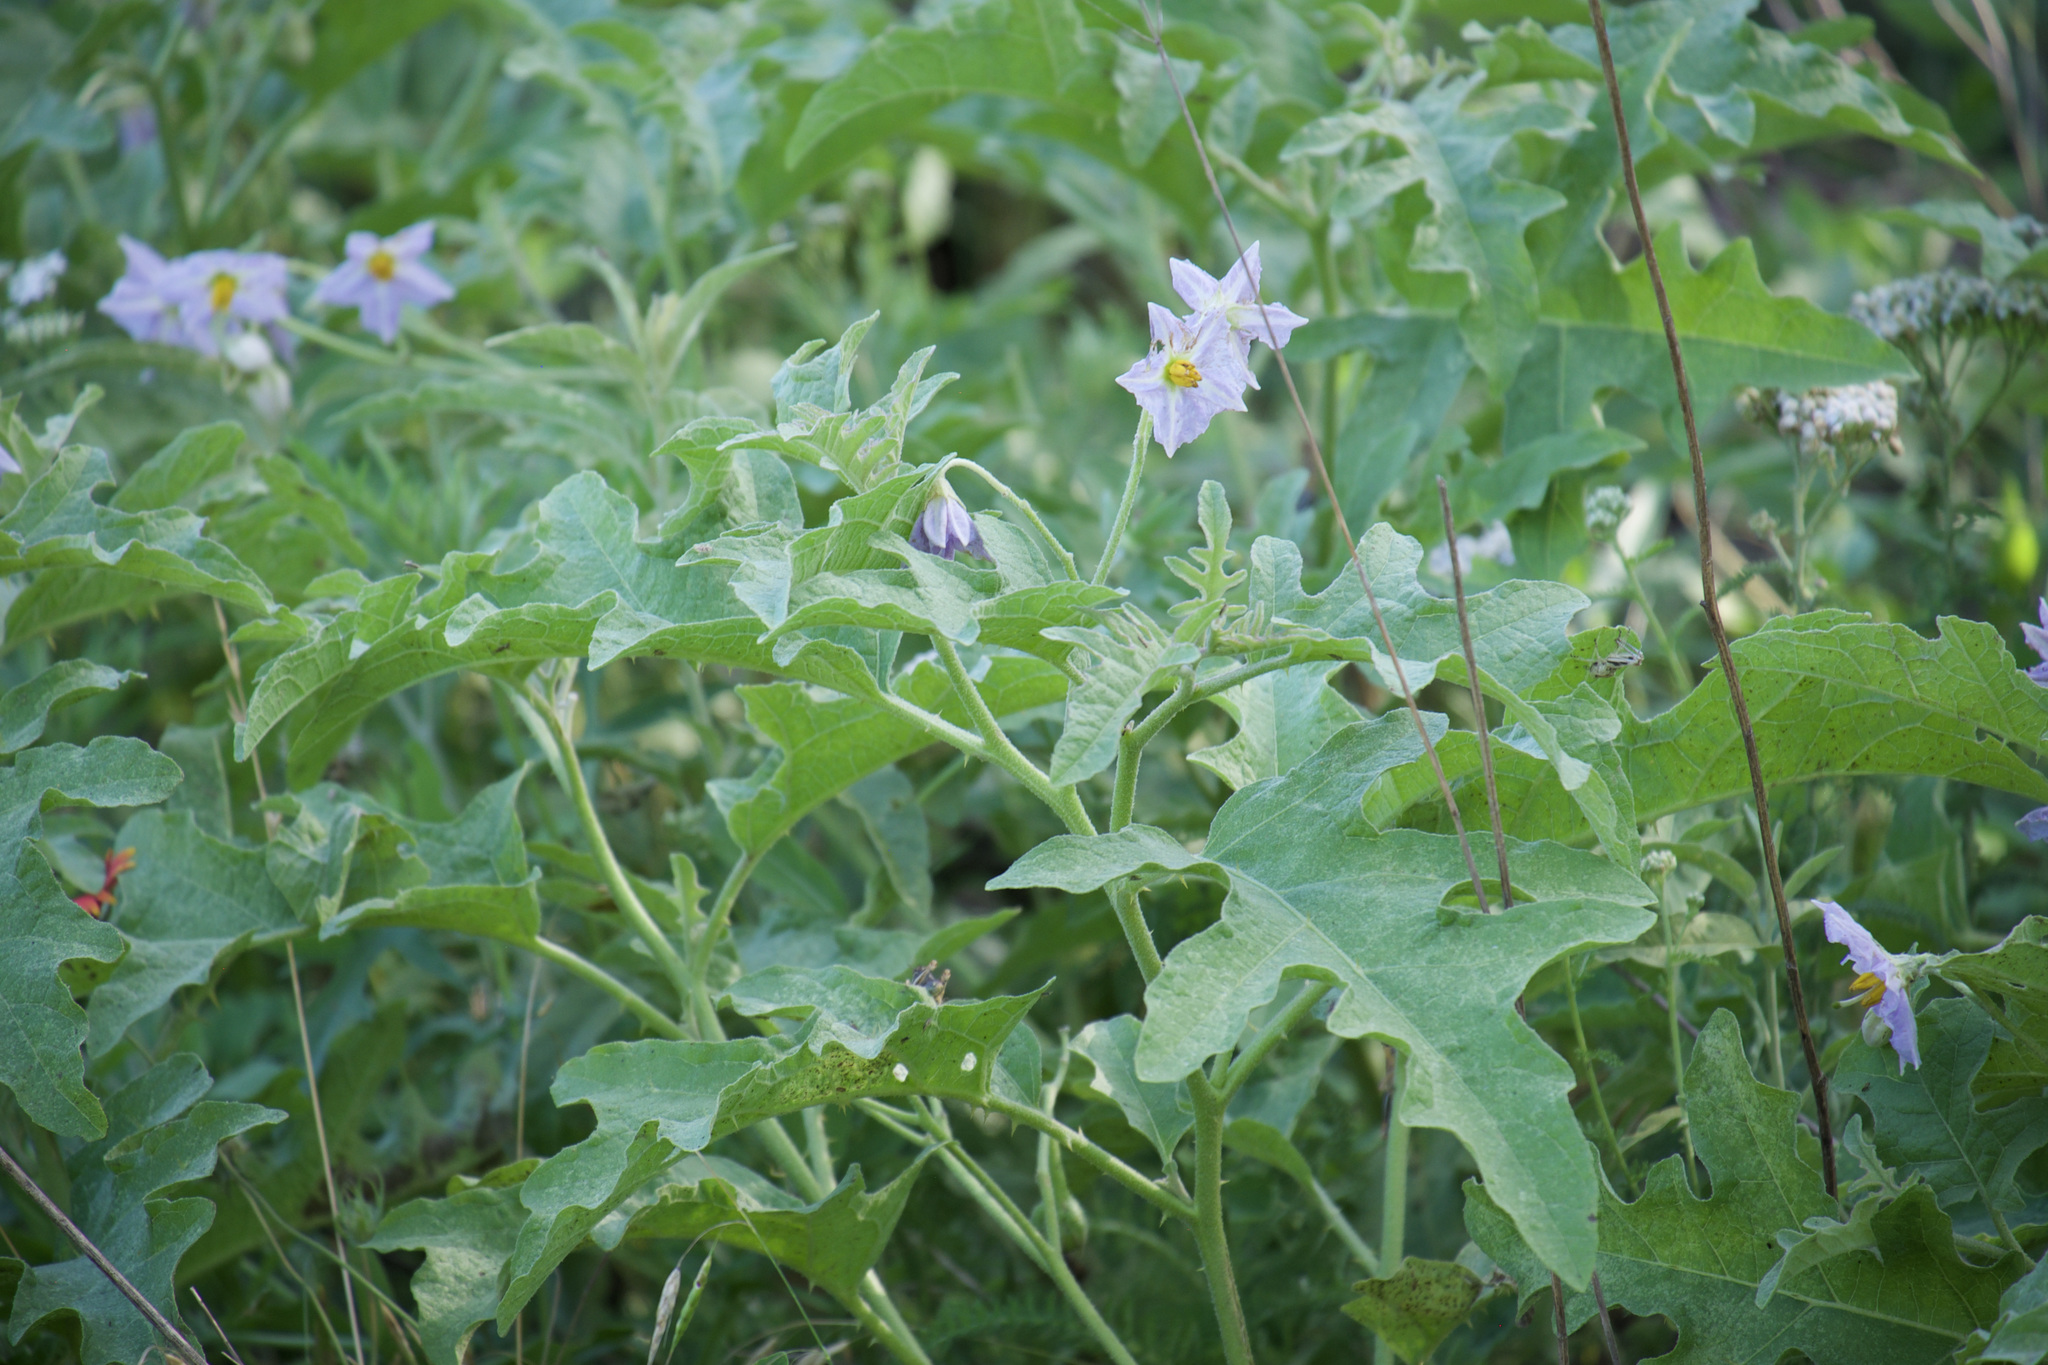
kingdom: Plantae
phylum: Tracheophyta
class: Magnoliopsida
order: Solanales
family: Solanaceae
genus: Solanum
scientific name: Solanum dimidiatum
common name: Carolina horse-nettle
